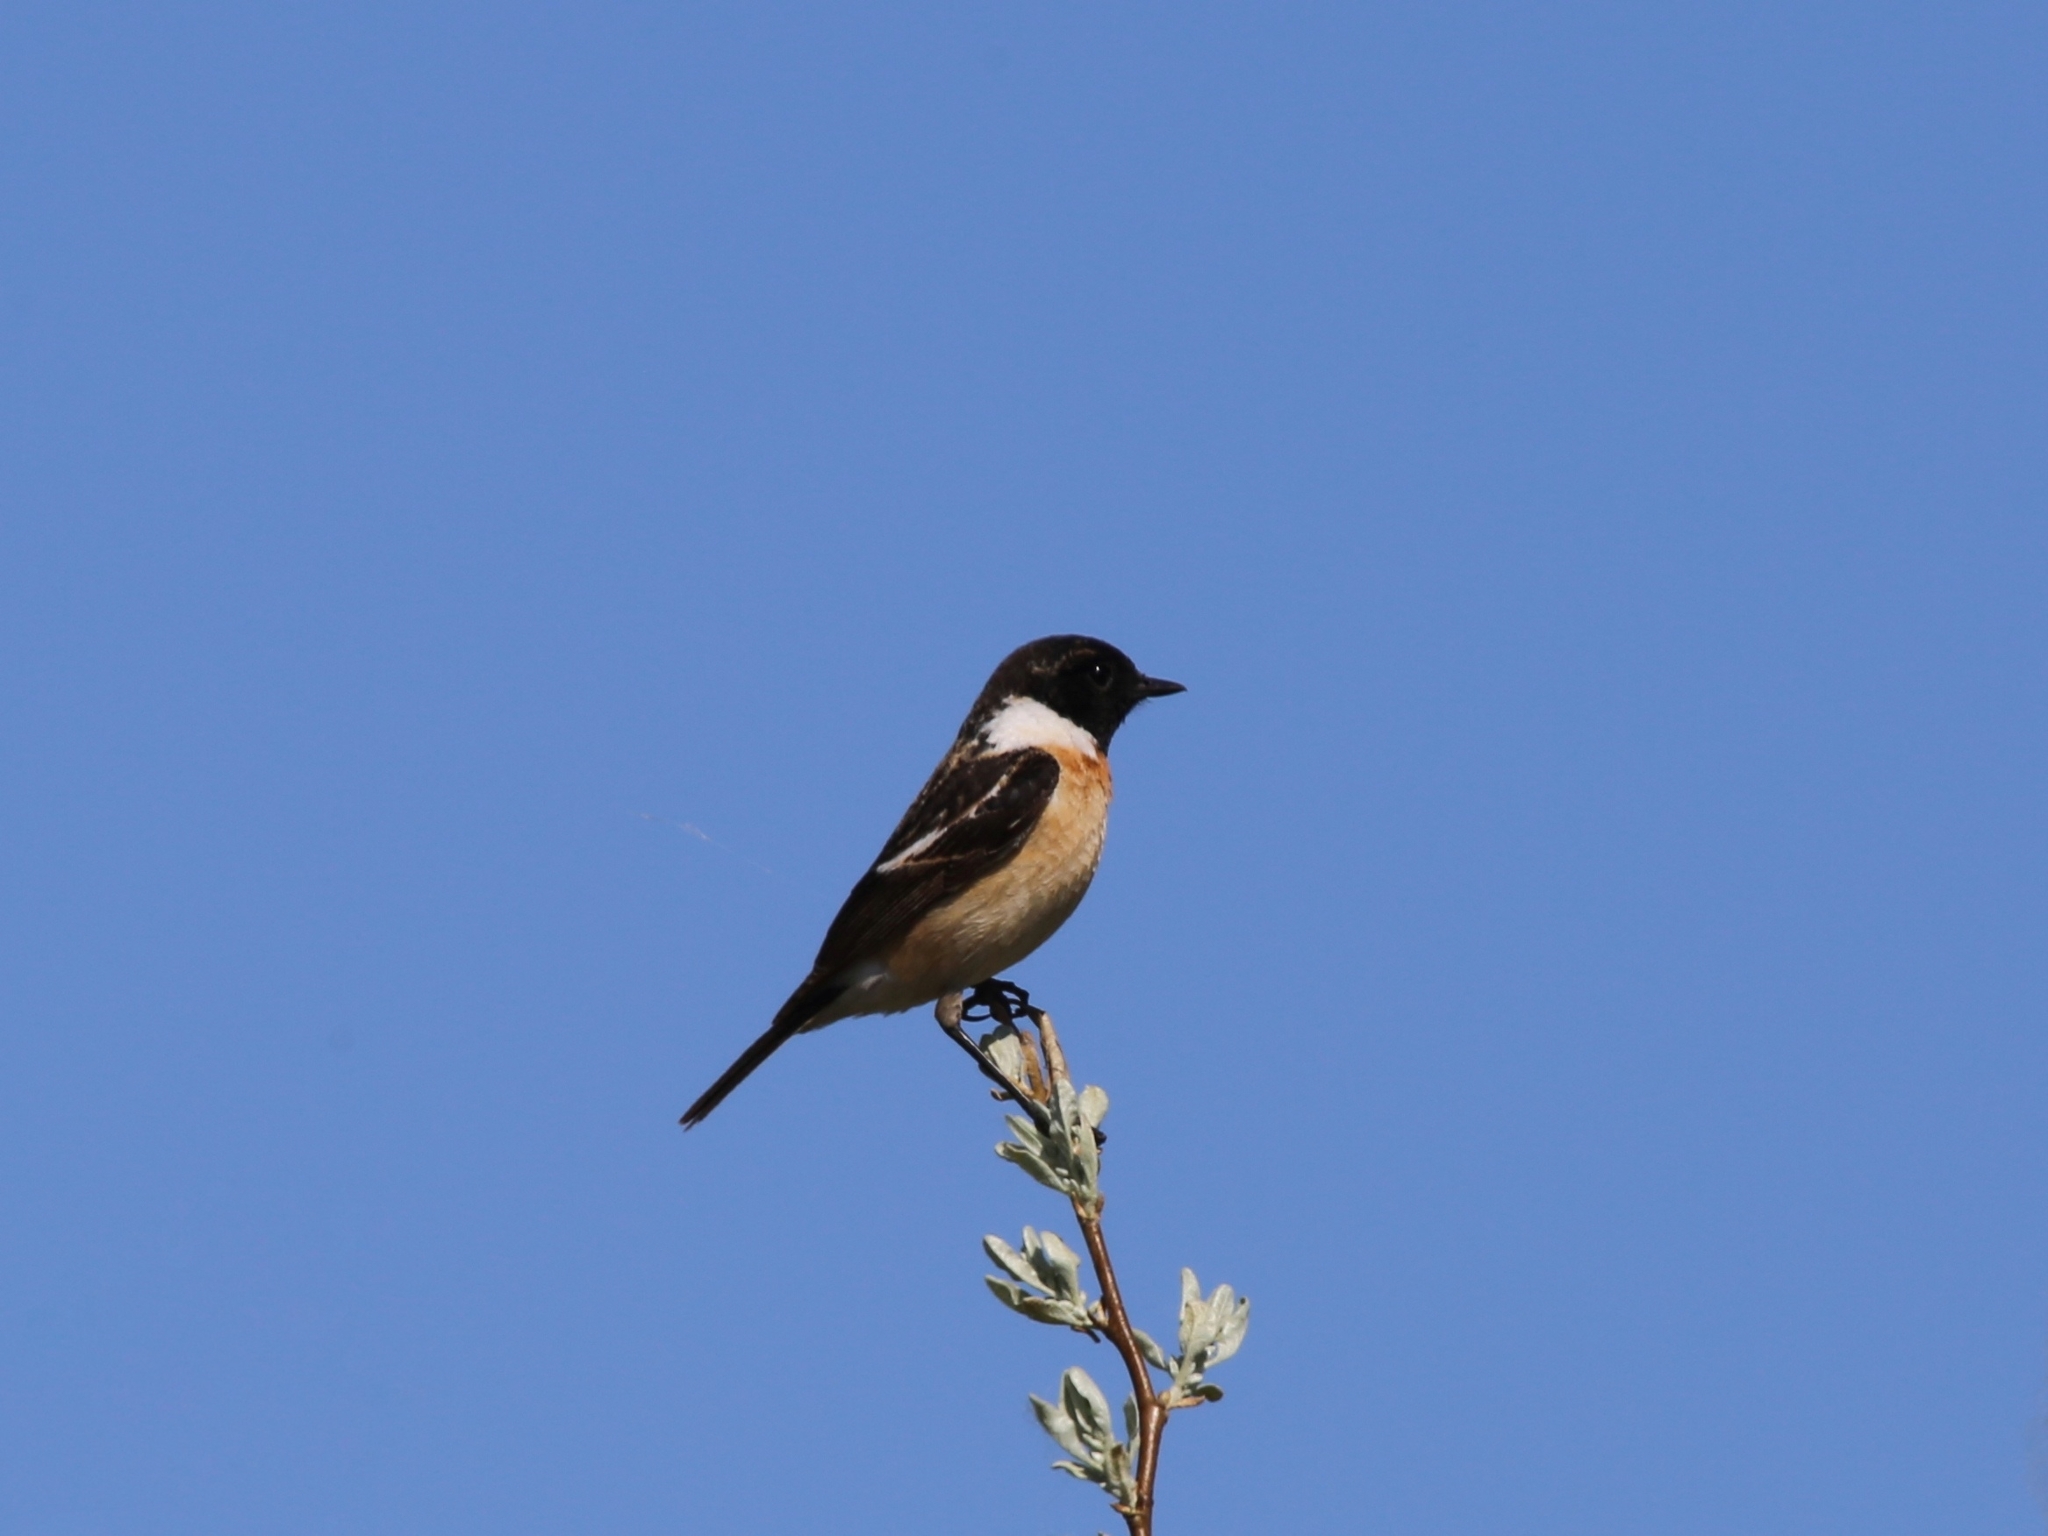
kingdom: Animalia
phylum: Chordata
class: Aves
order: Passeriformes
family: Muscicapidae
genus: Saxicola
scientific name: Saxicola maurus
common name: Siberian stonechat
